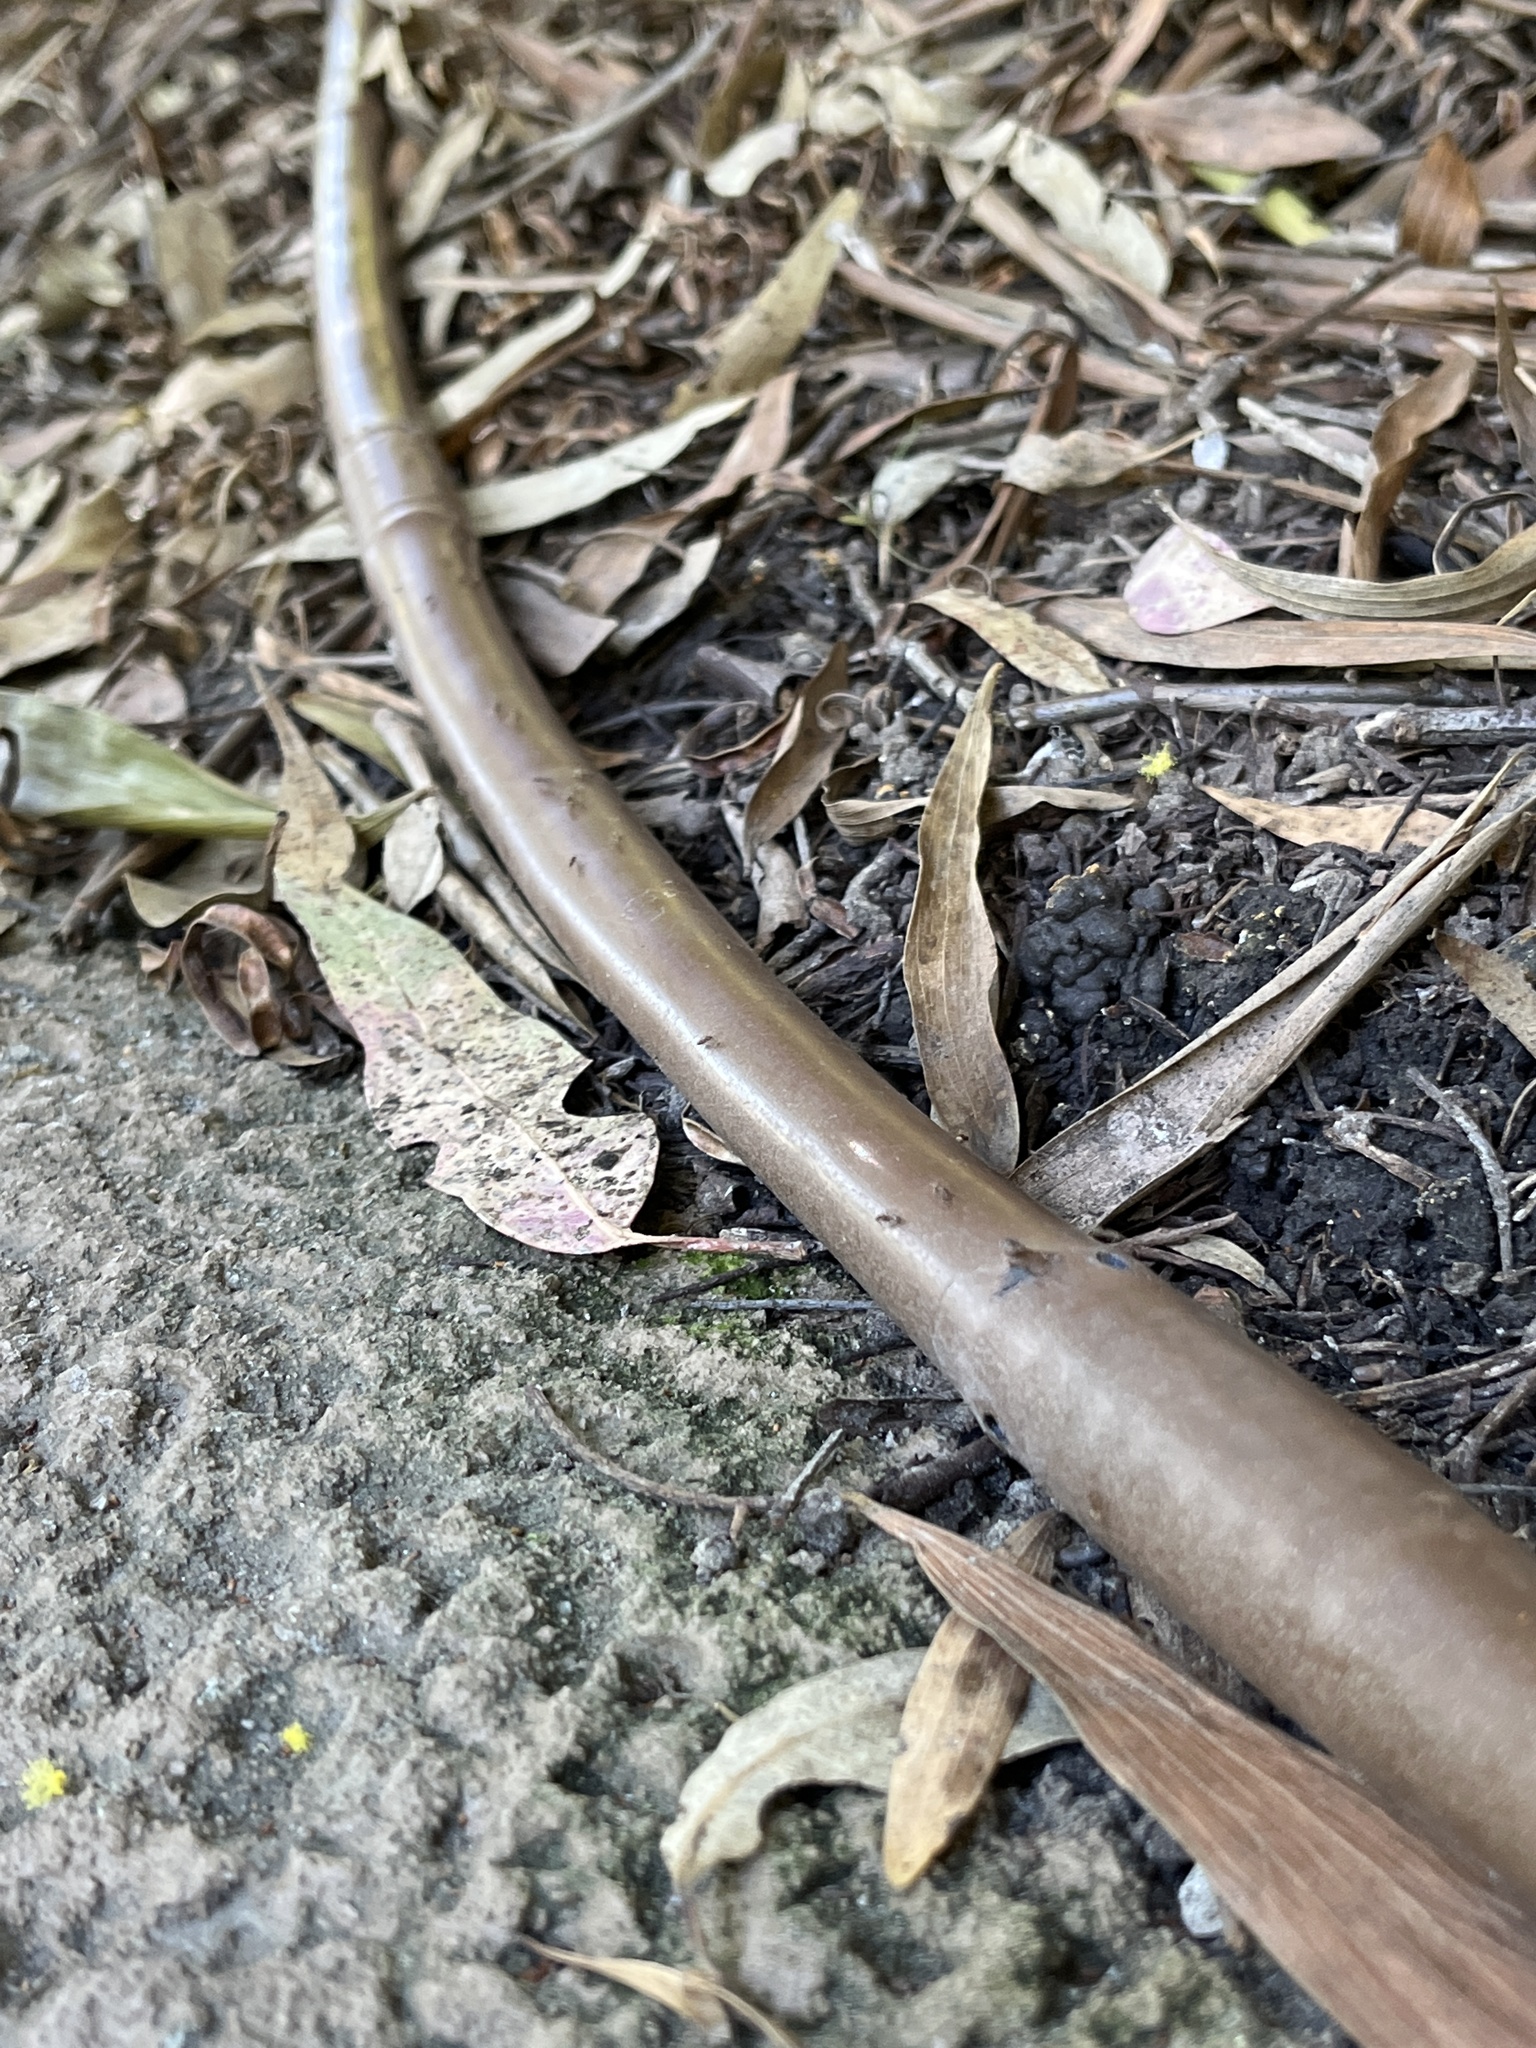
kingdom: Animalia
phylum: Arthropoda
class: Insecta
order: Hymenoptera
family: Formicidae
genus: Linepithema
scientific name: Linepithema humile
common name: Argentine ant
